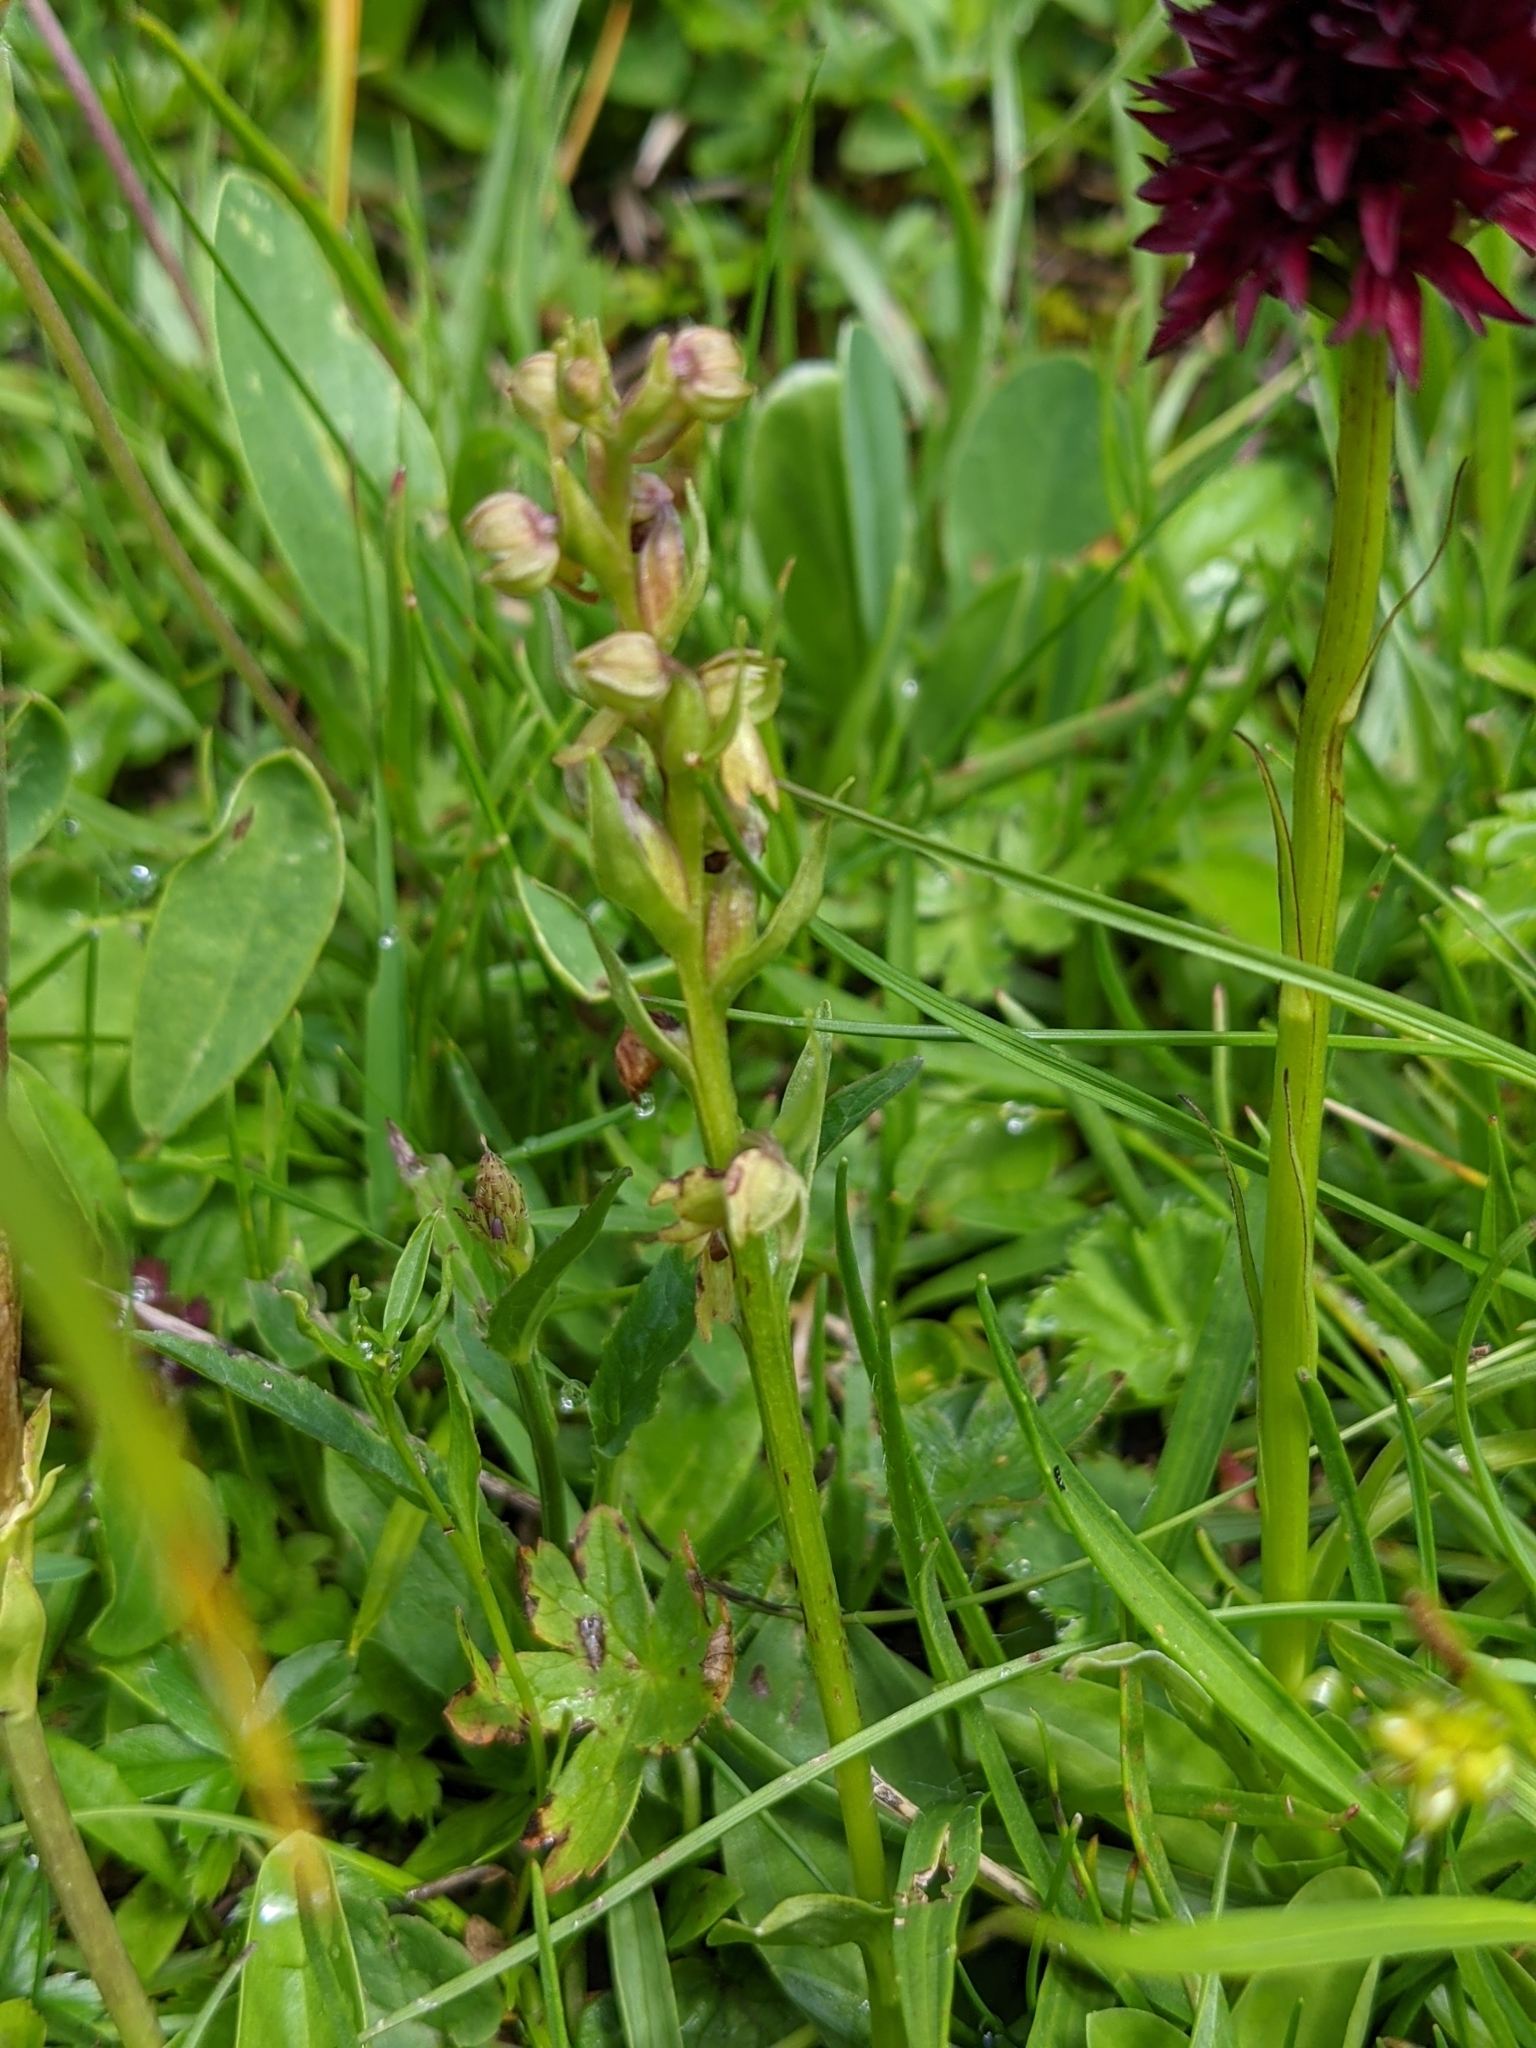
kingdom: Plantae
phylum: Tracheophyta
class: Liliopsida
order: Asparagales
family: Orchidaceae
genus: Dactylorhiza
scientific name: Dactylorhiza viridis
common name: Longbract frog orchid
